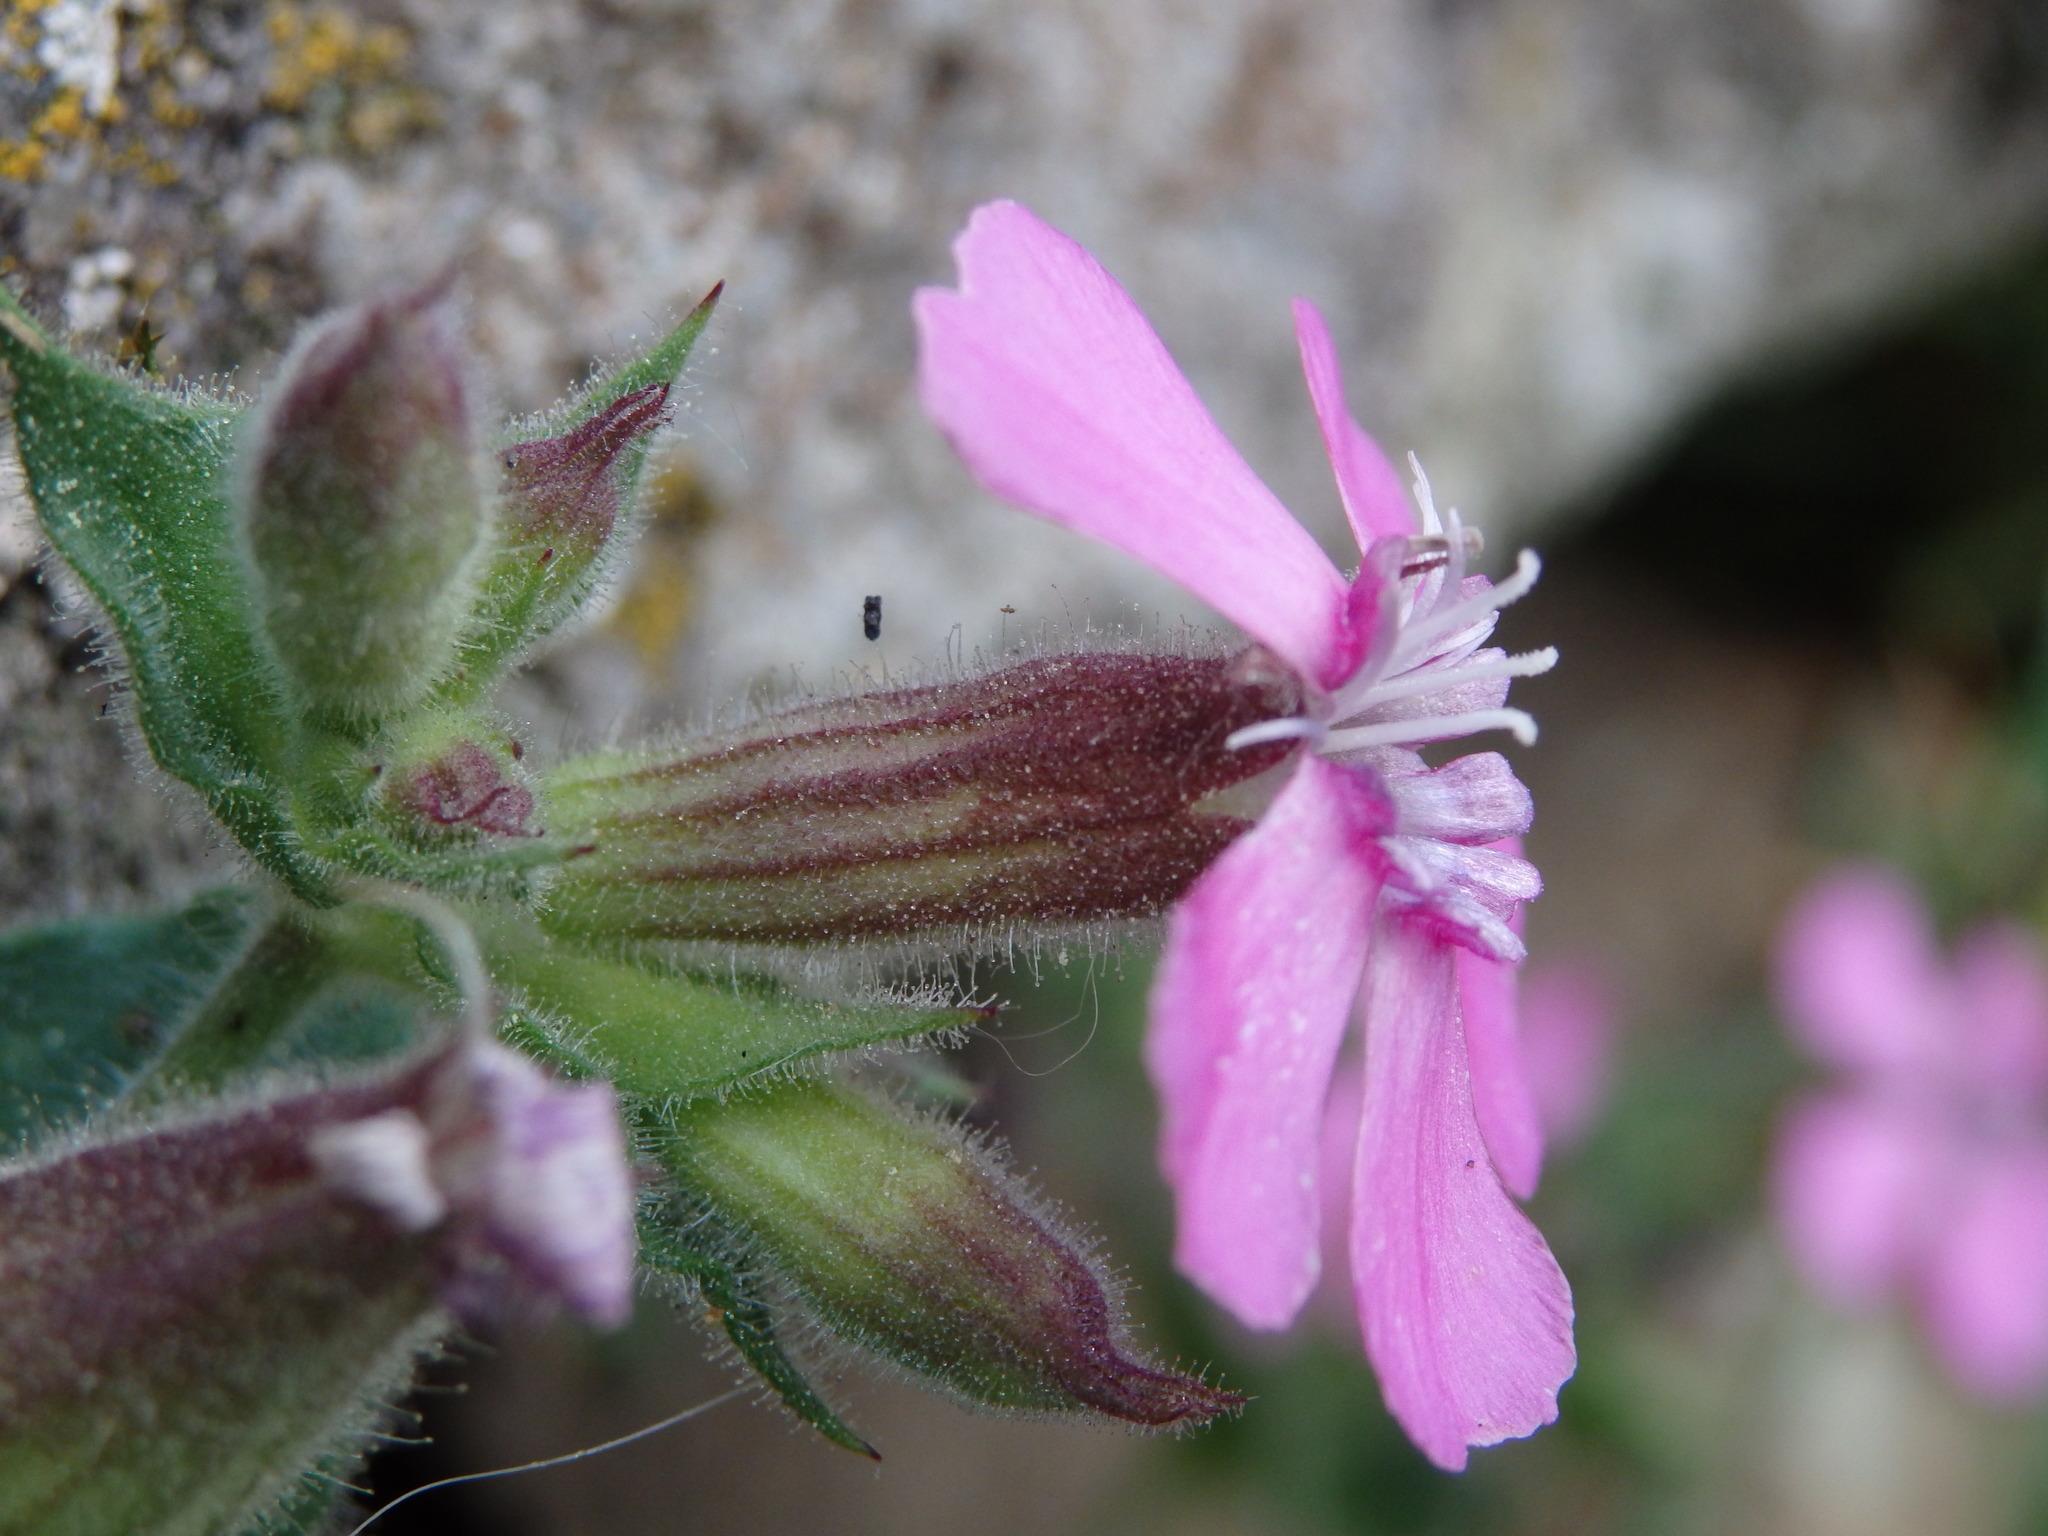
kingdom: Plantae
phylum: Tracheophyta
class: Magnoliopsida
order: Caryophyllales
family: Caryophyllaceae
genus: Silene
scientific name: Silene acutifolia
